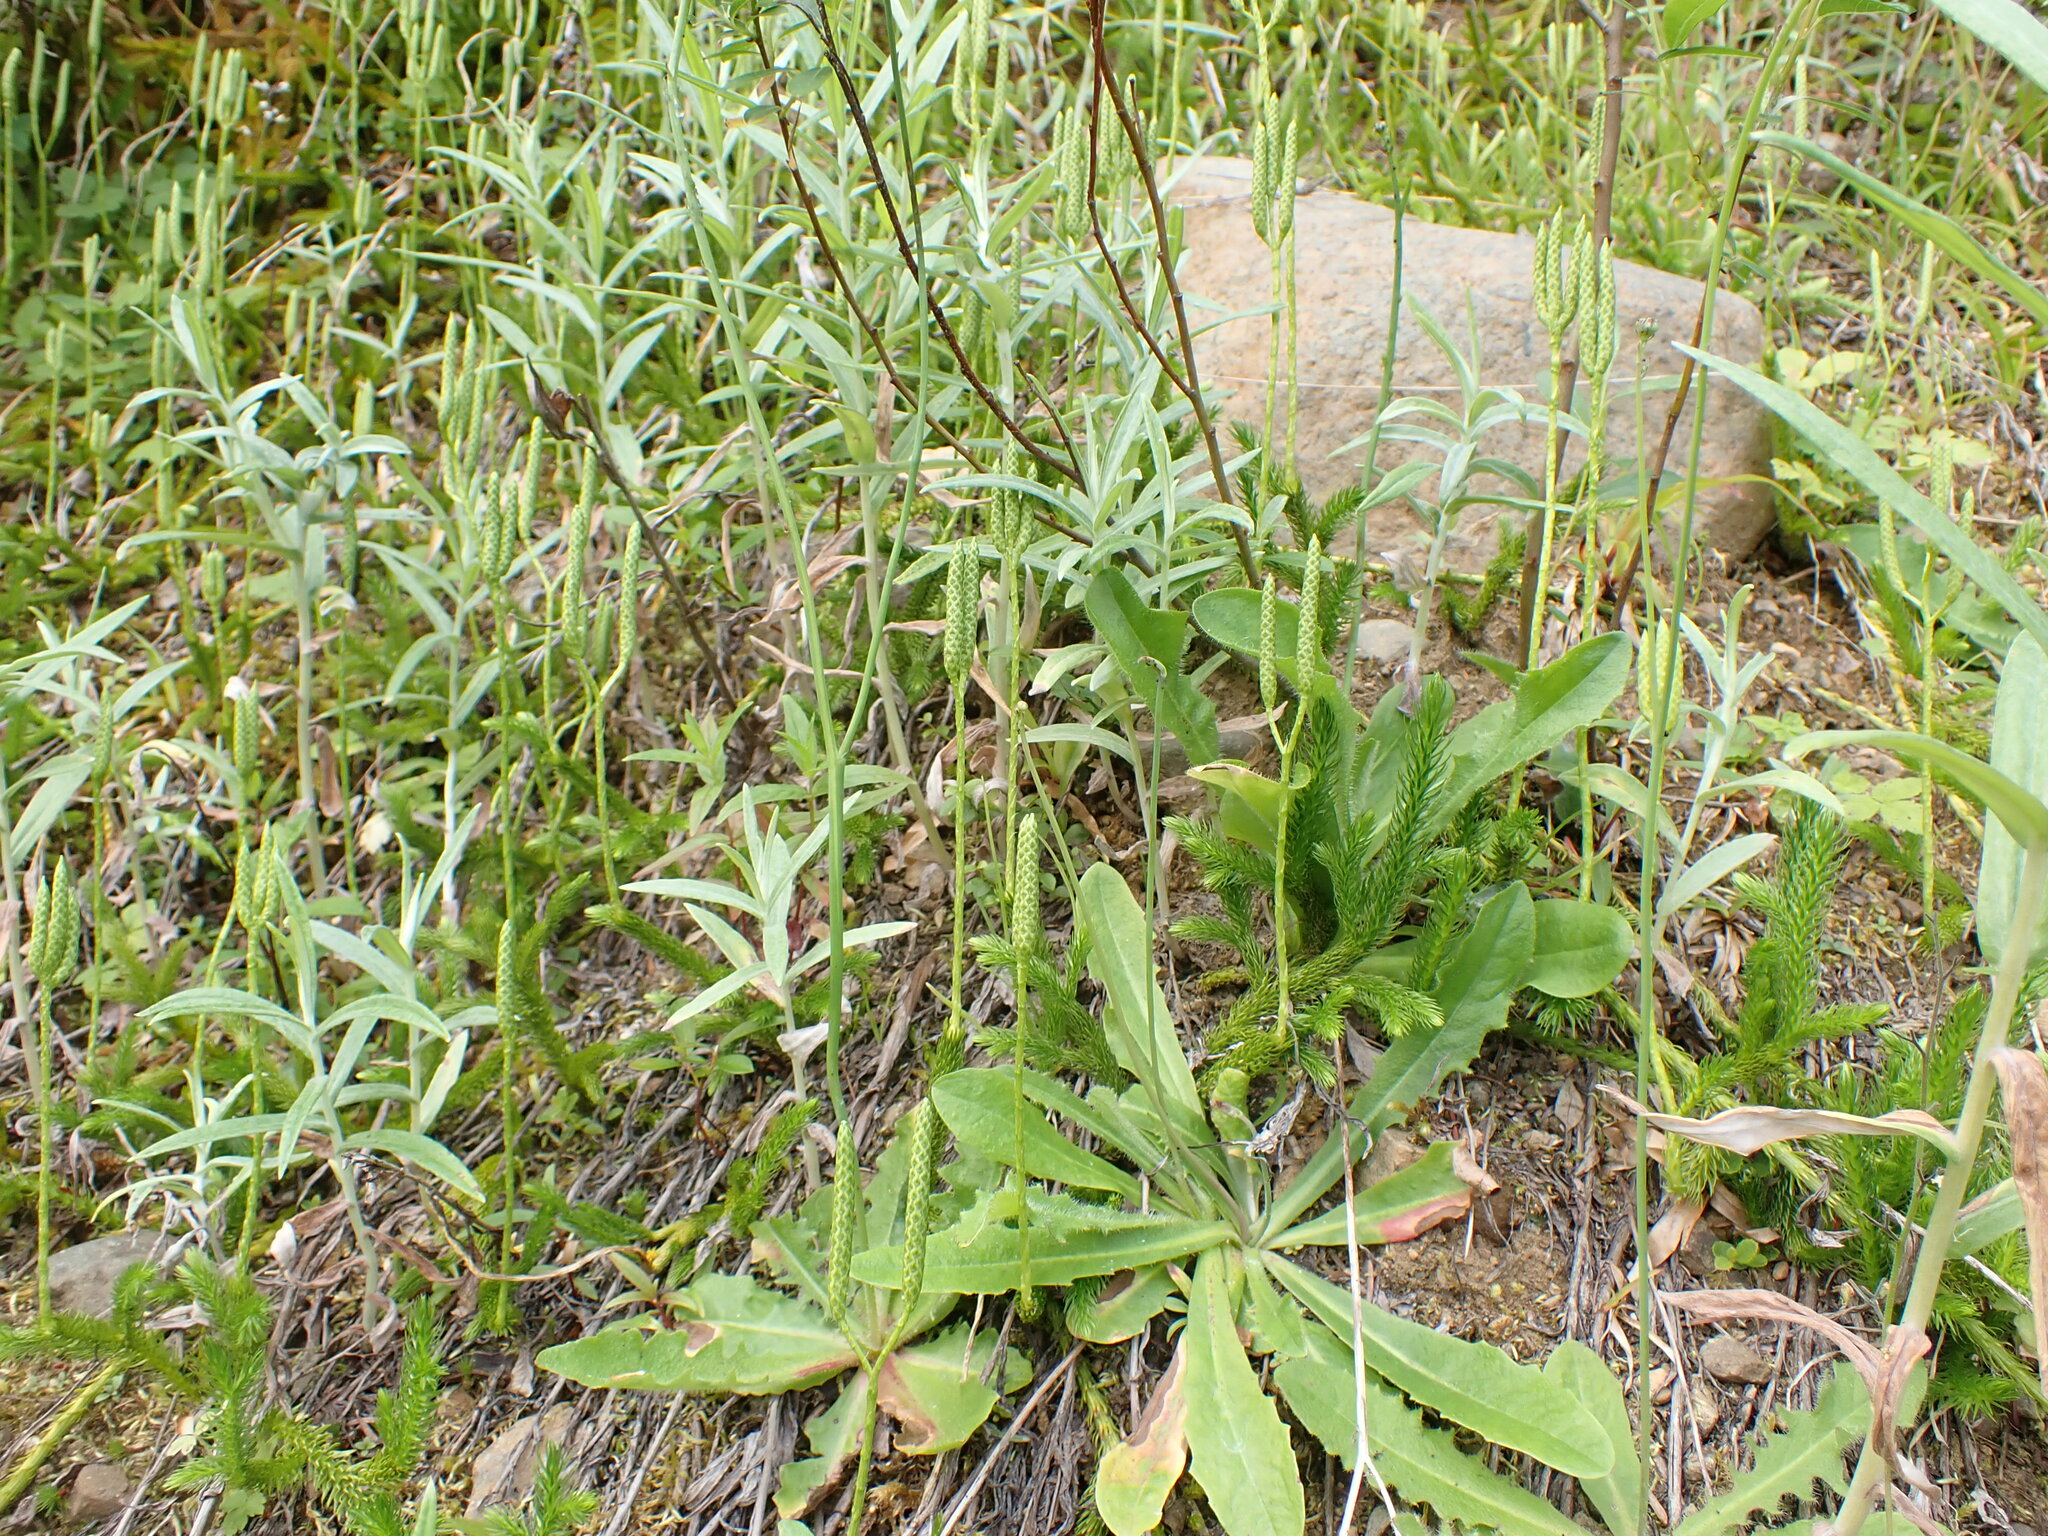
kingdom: Plantae
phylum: Tracheophyta
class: Lycopodiopsida
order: Lycopodiales
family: Lycopodiaceae
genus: Lycopodium
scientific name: Lycopodium clavatum
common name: Stag's-horn clubmoss
